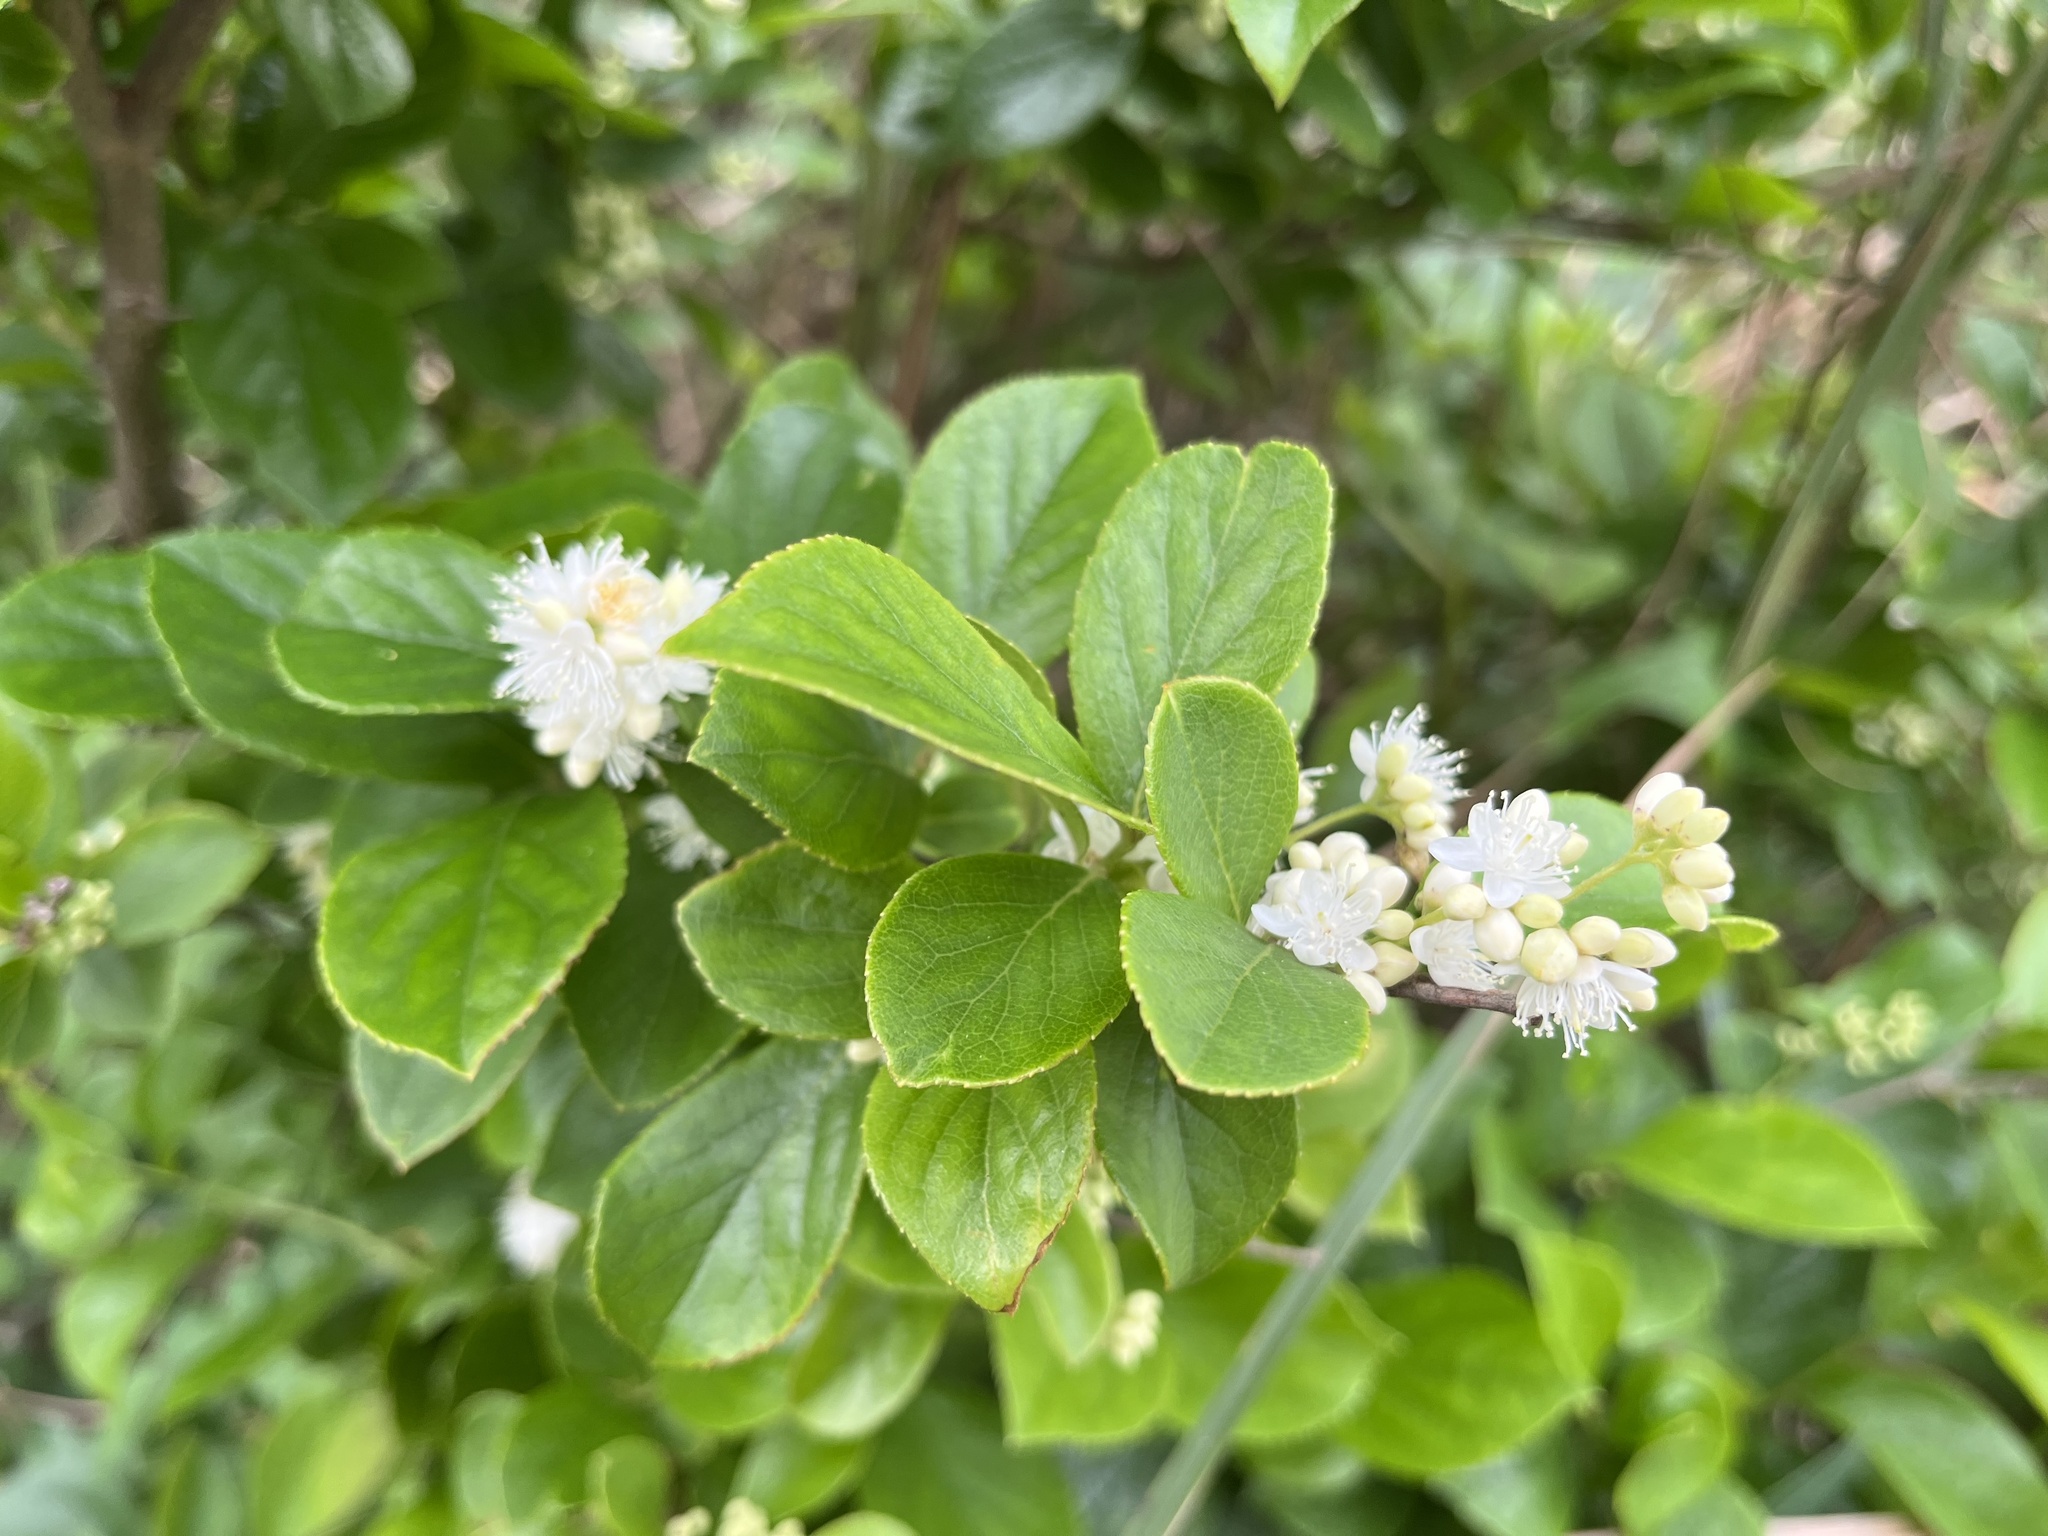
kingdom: Plantae
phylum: Tracheophyta
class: Magnoliopsida
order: Ericales
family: Symplocaceae
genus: Symplocos
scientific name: Symplocos paniculata
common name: Sapphire-berry
